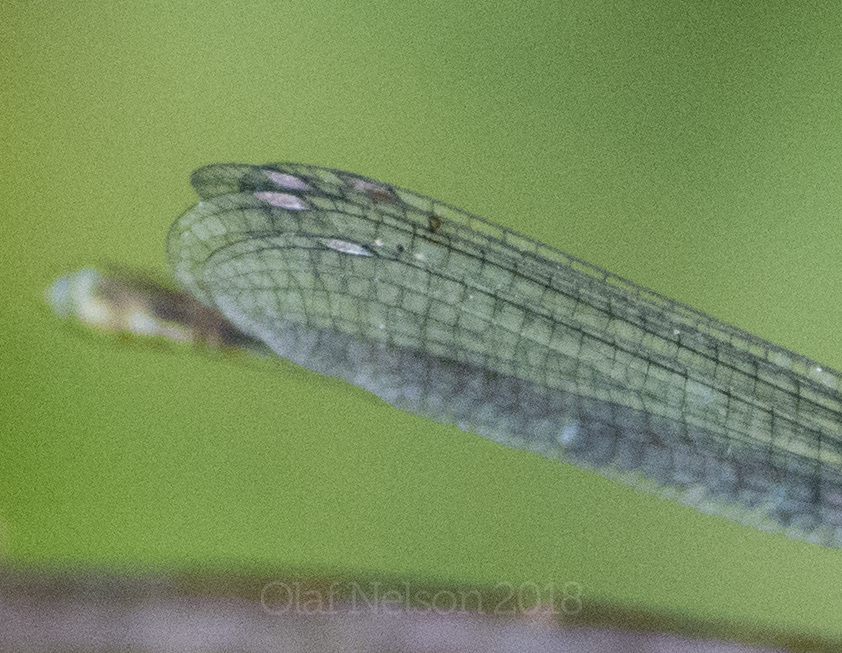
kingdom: Animalia
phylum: Arthropoda
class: Insecta
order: Odonata
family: Coenagrionidae
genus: Argia
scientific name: Argia moesta
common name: Powdered dancer
